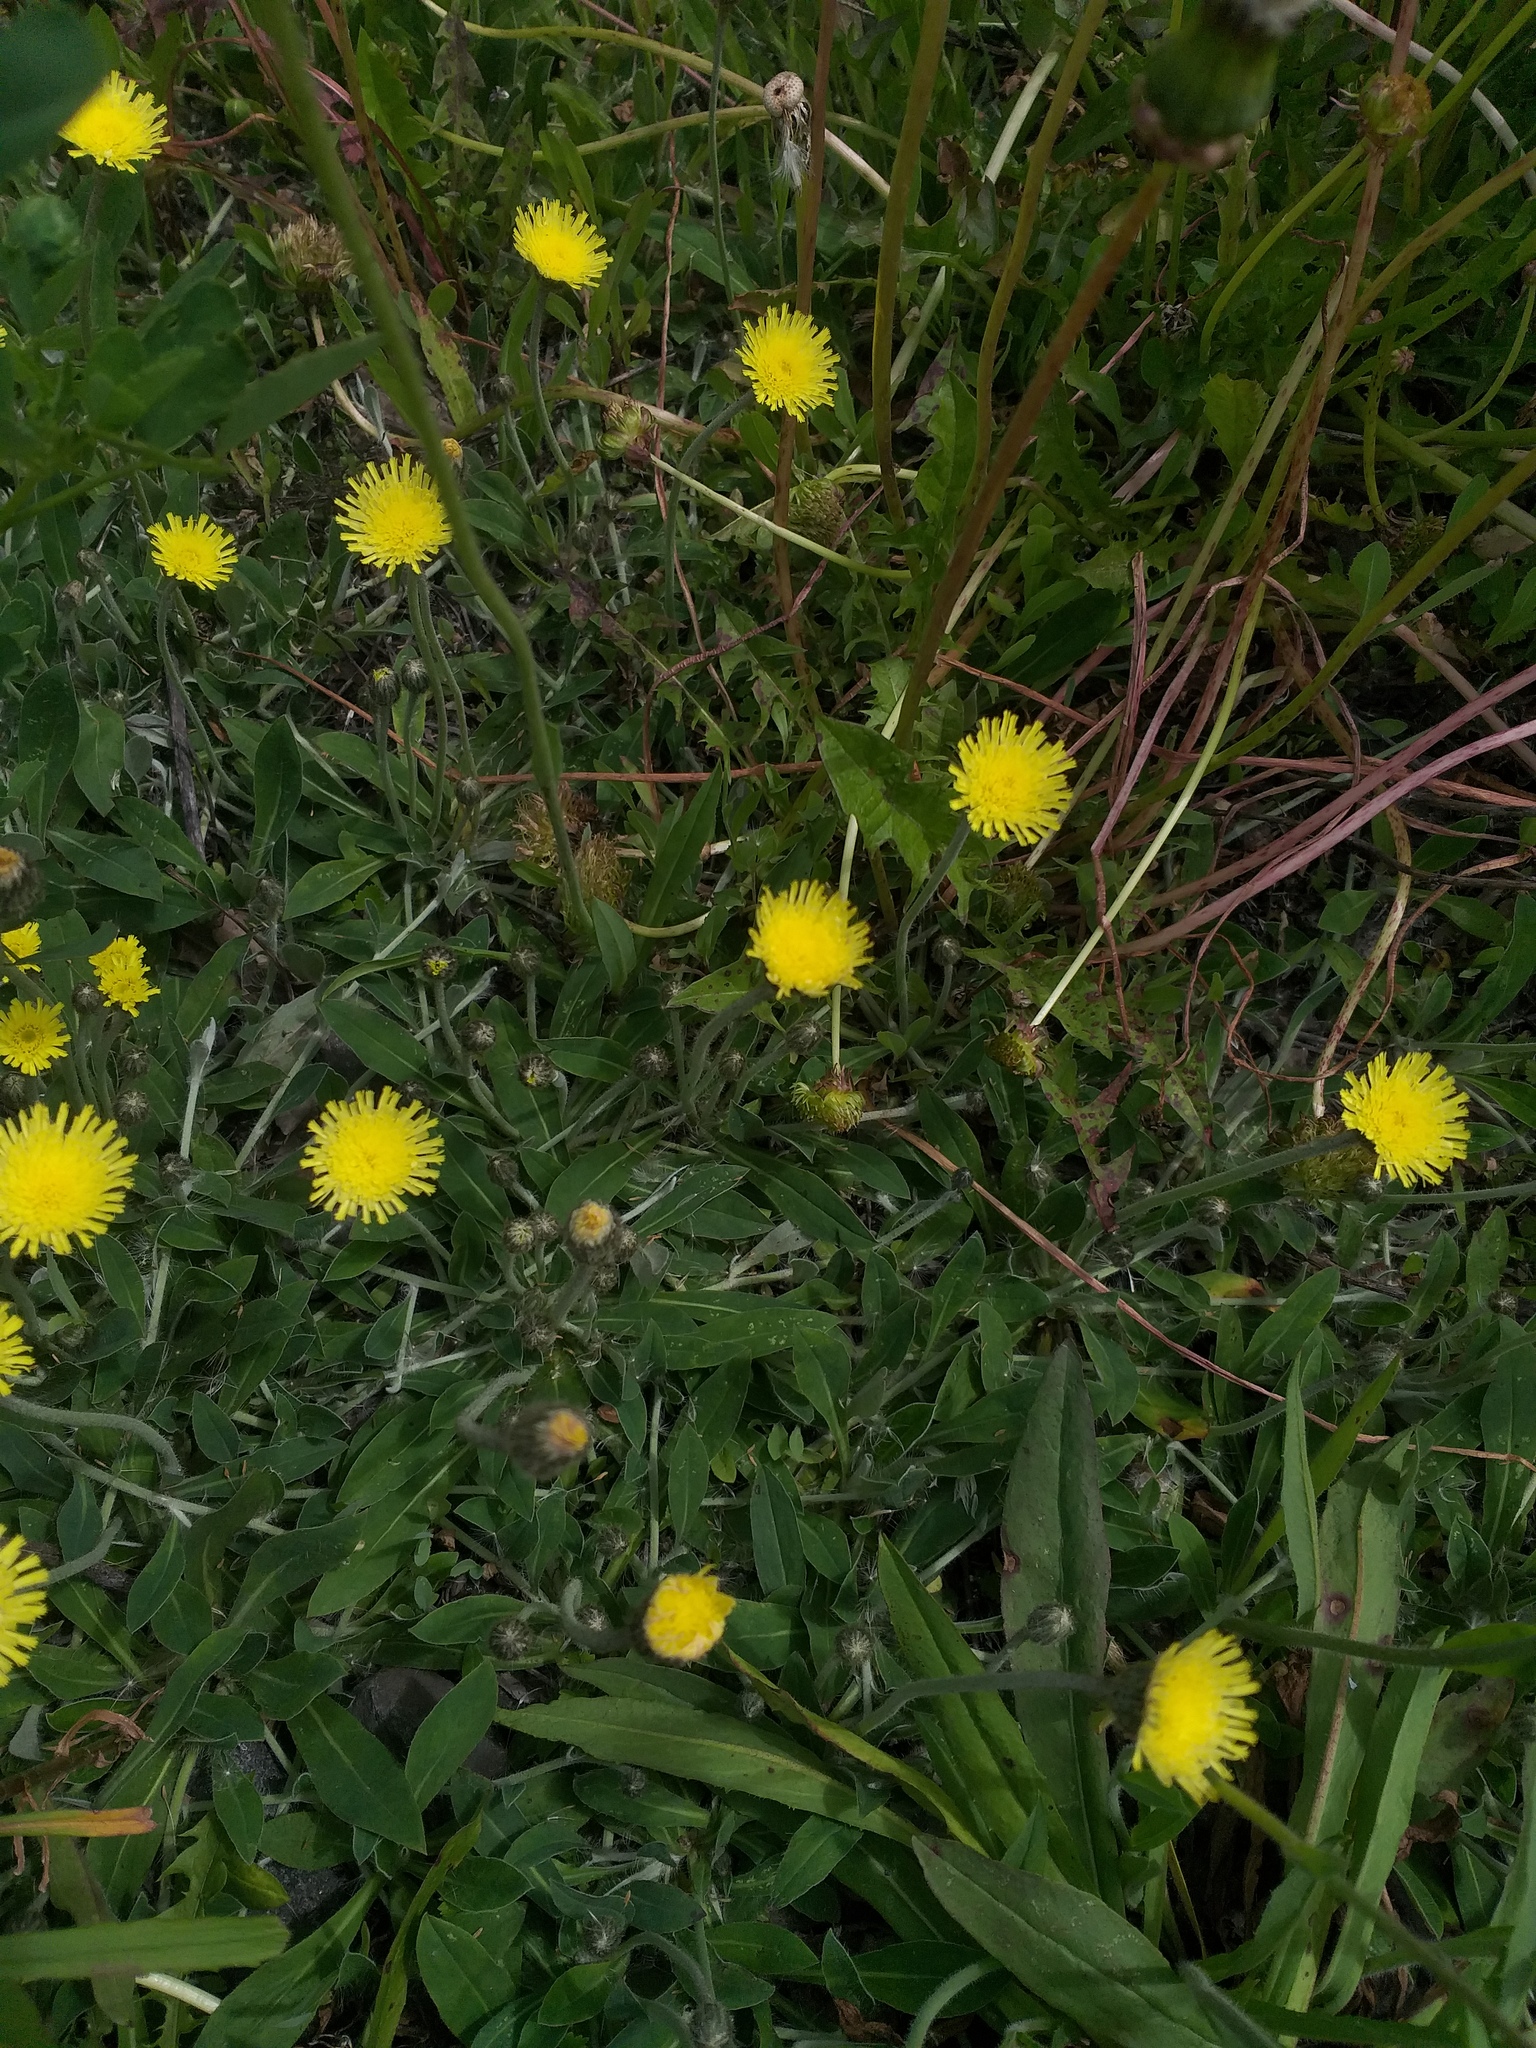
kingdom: Plantae
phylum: Tracheophyta
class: Magnoliopsida
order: Asterales
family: Asteraceae
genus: Pilosella
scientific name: Pilosella officinarum
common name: Mouse-ear hawkweed
